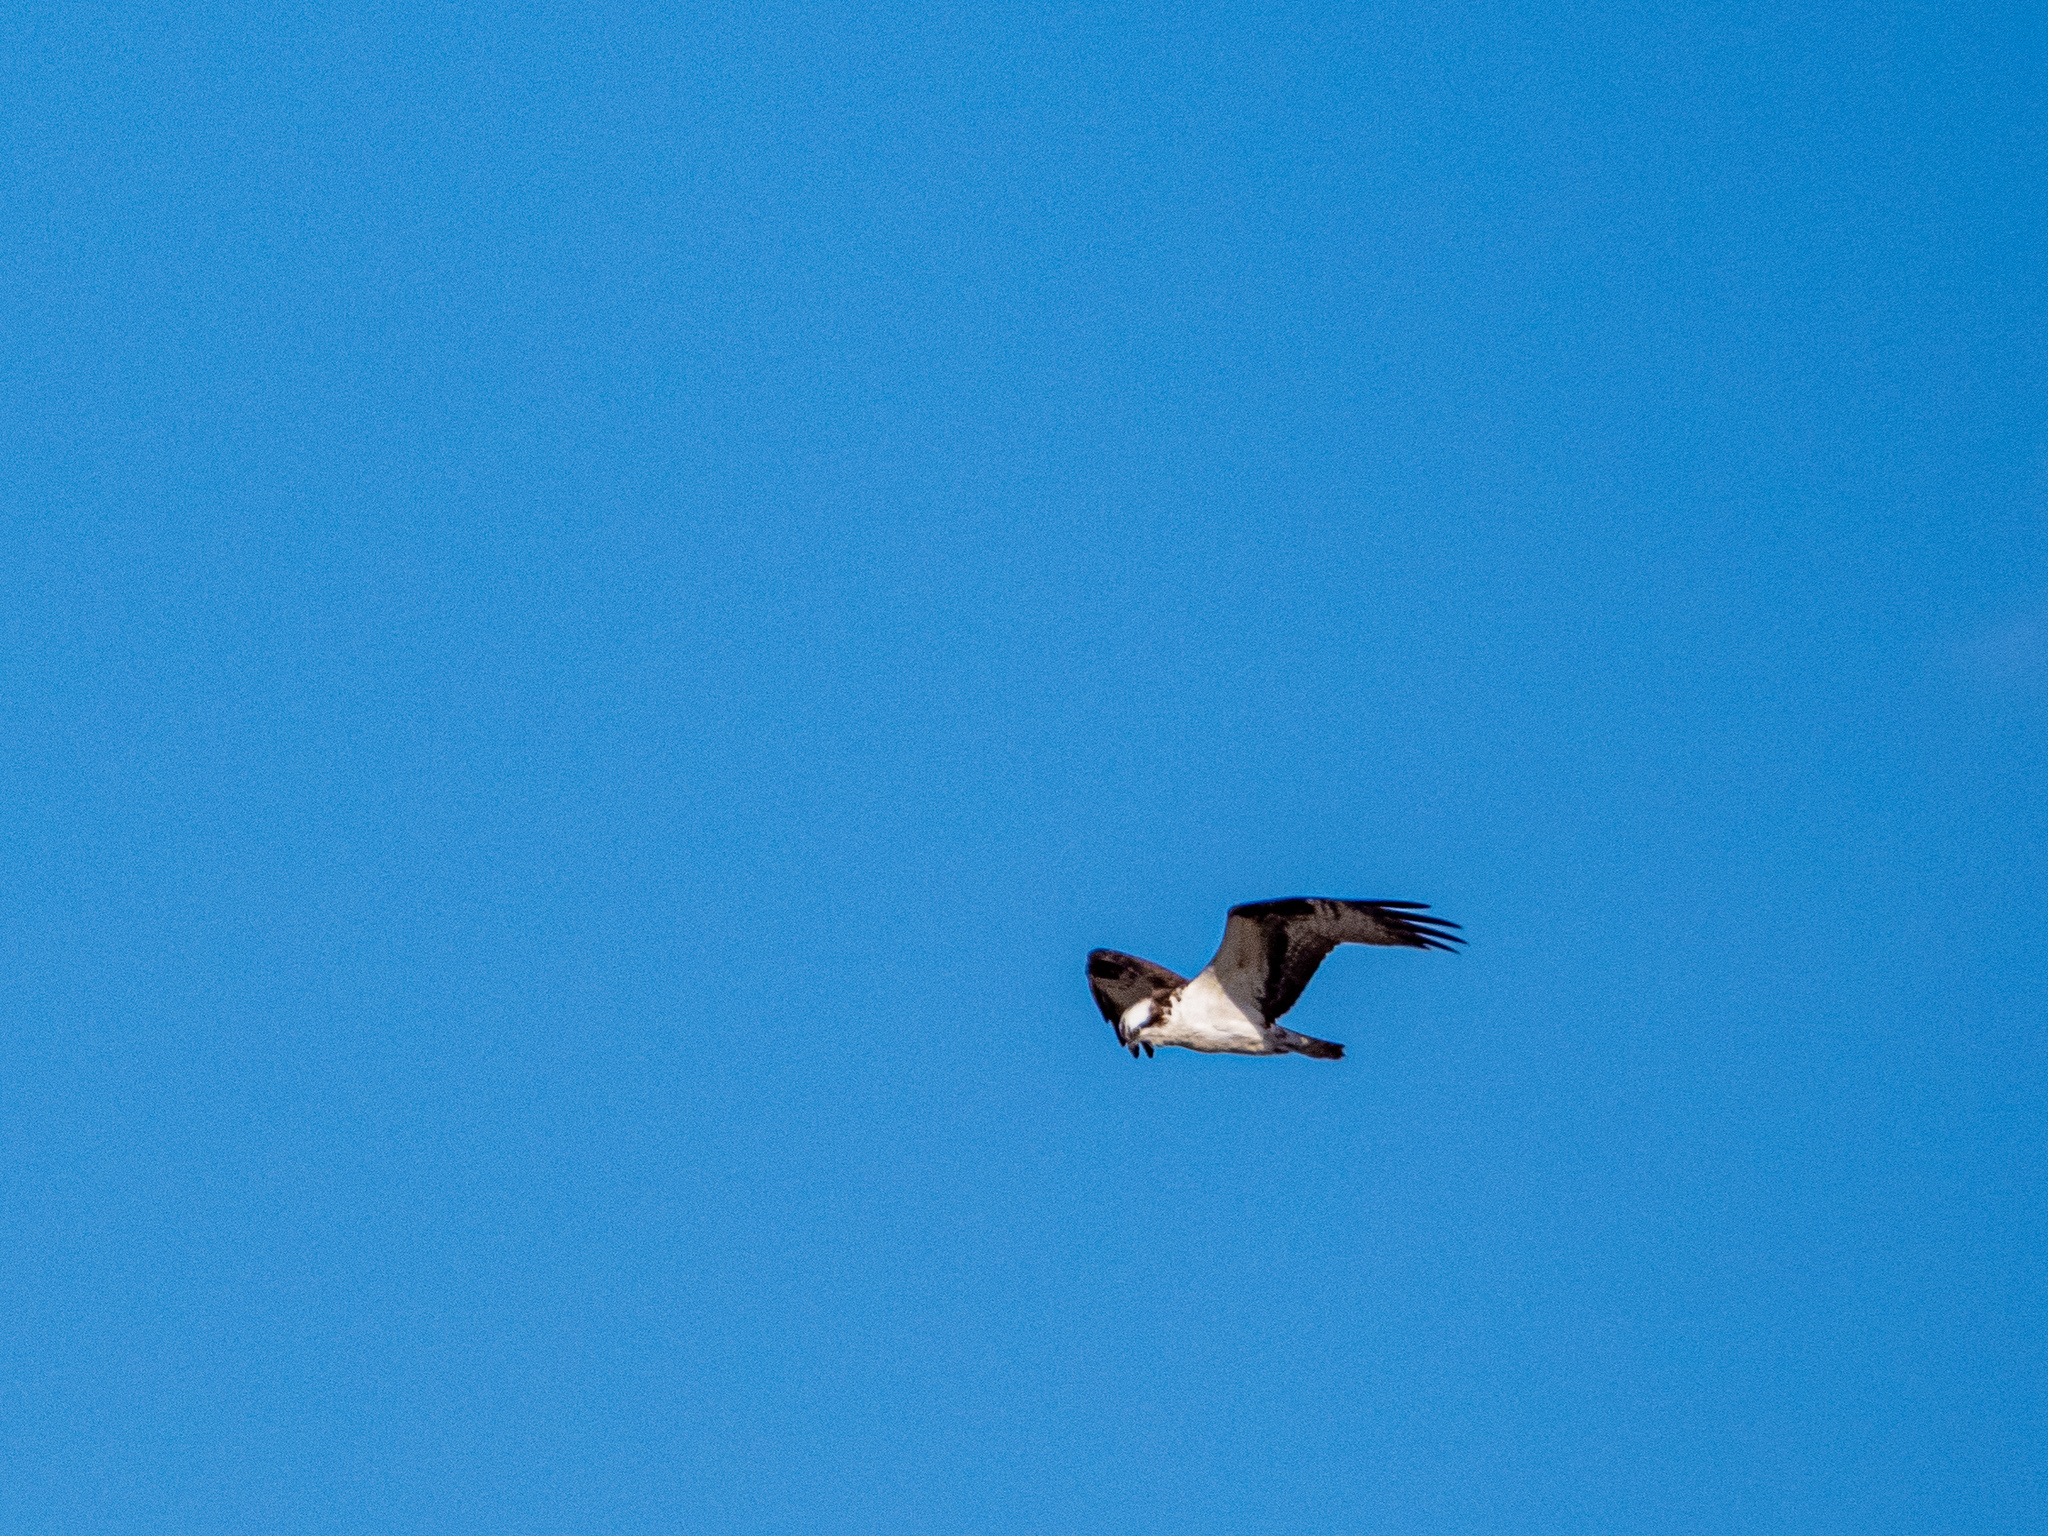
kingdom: Animalia
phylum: Chordata
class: Aves
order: Accipitriformes
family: Pandionidae
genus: Pandion
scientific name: Pandion haliaetus
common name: Osprey
